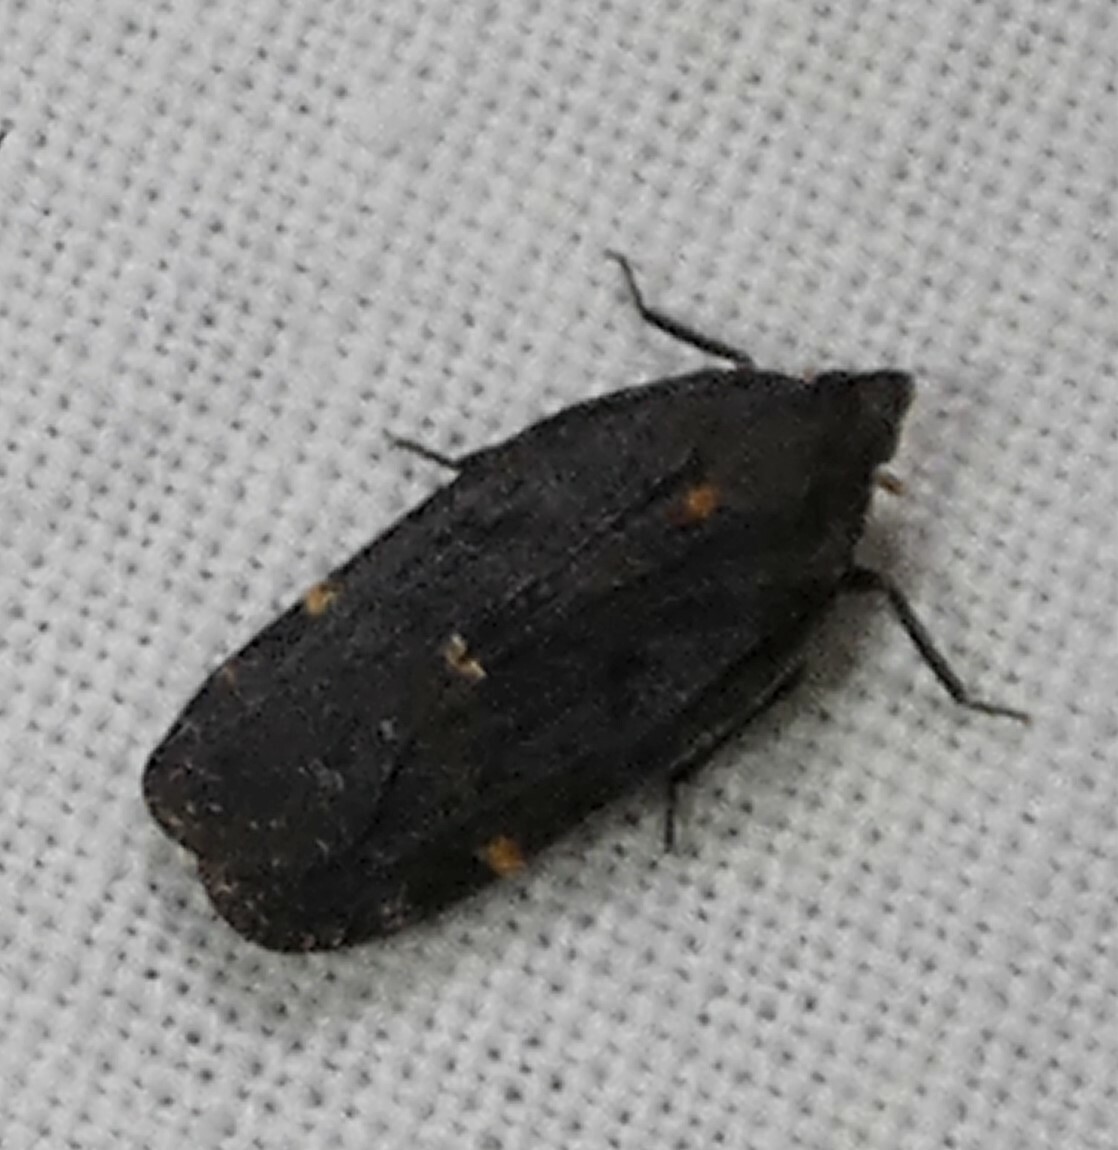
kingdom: Animalia
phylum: Arthropoda
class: Insecta
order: Hemiptera
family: Achilidae
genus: Cixidia
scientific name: Cixidia opaca
